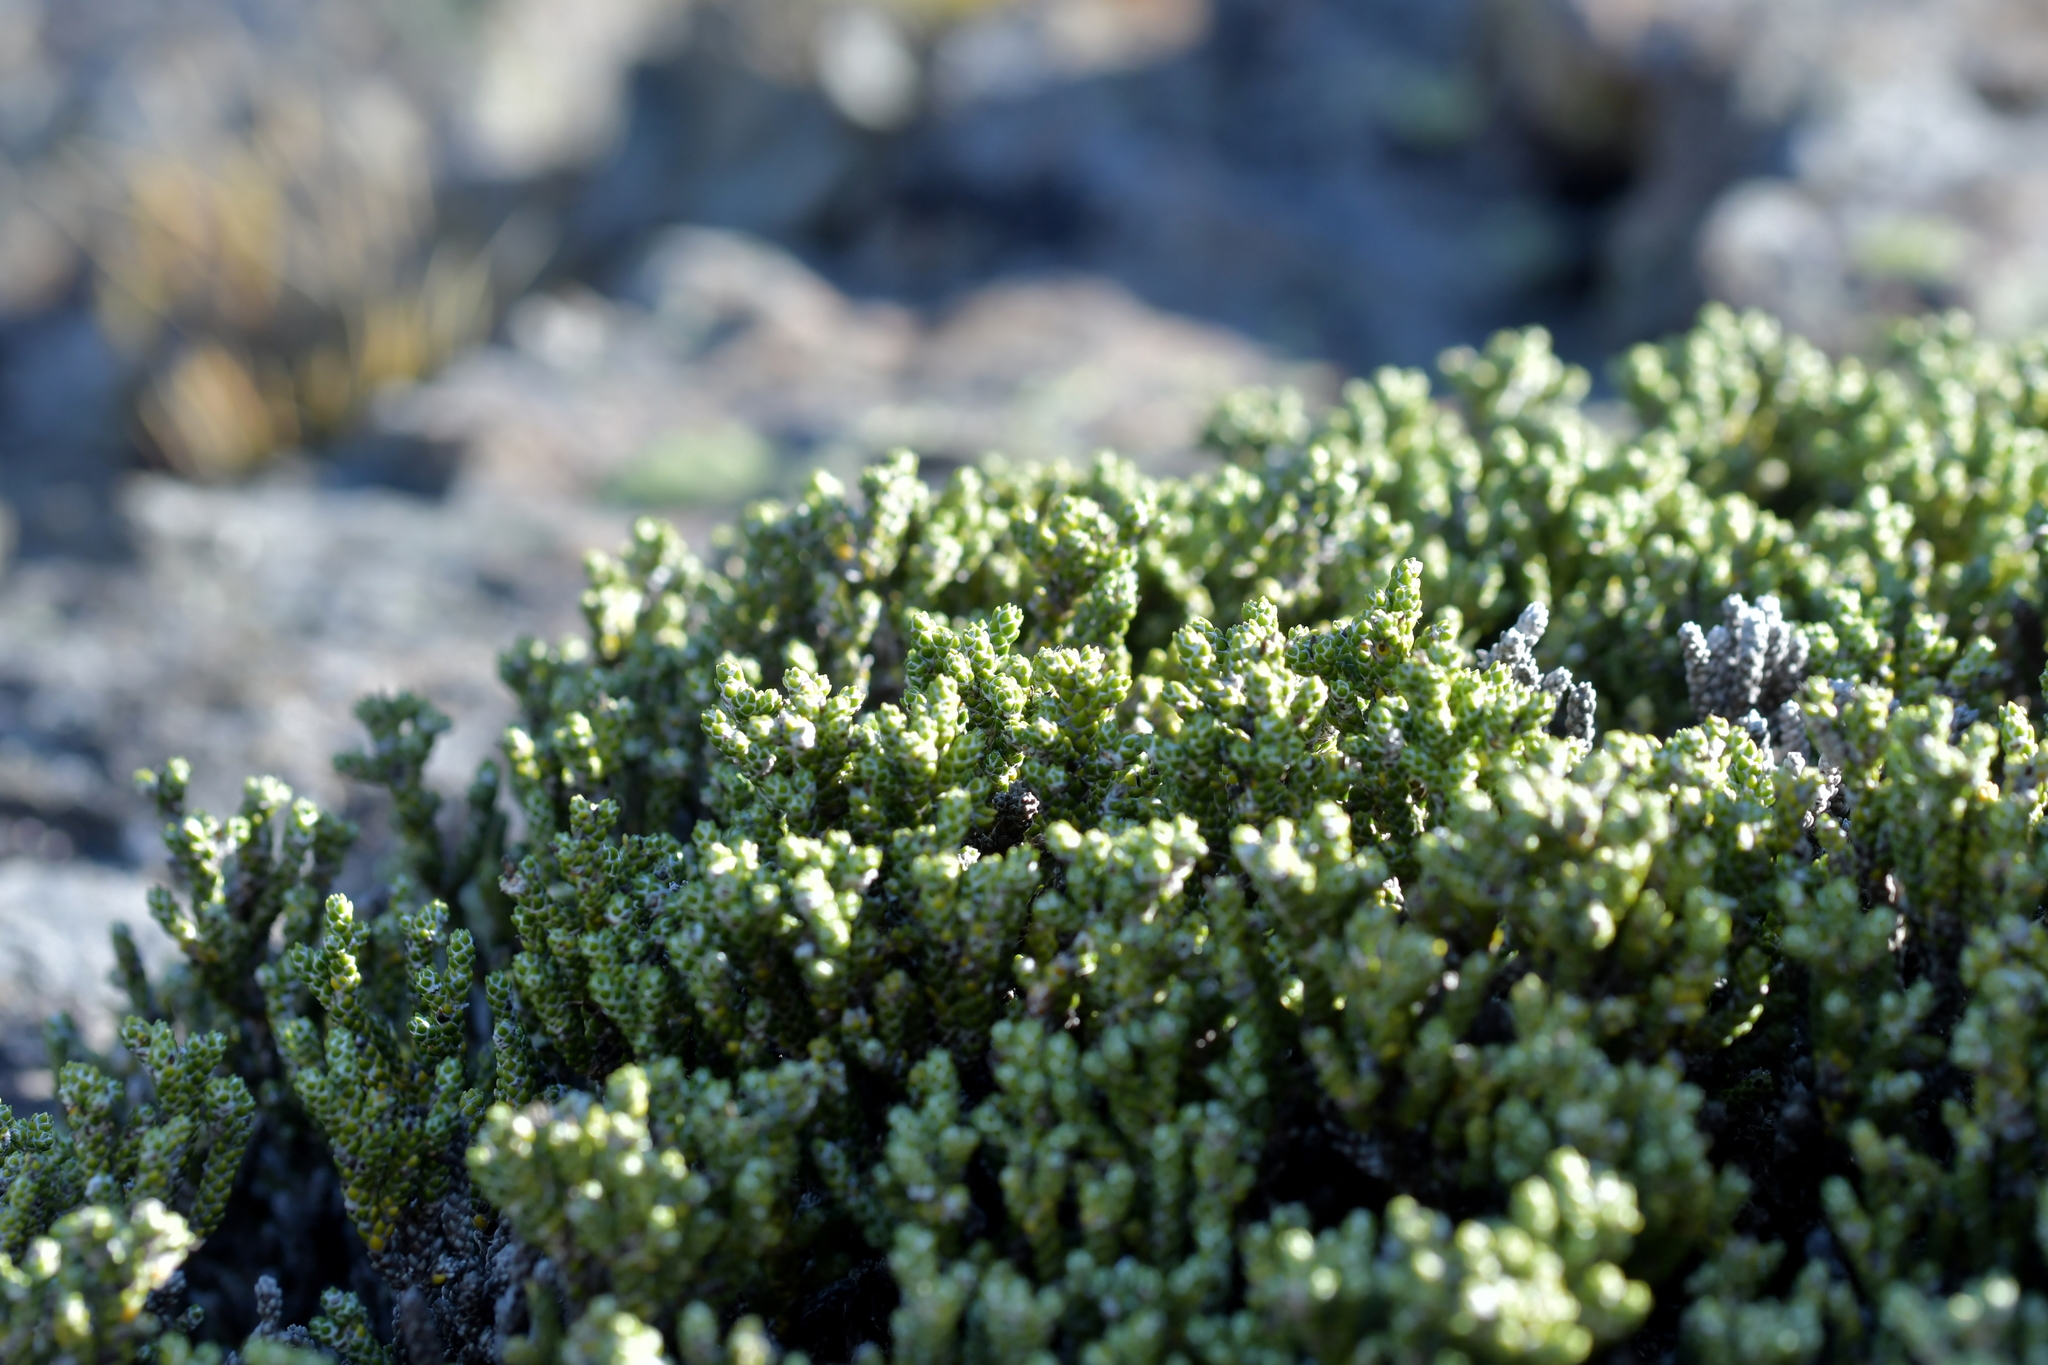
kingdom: Plantae
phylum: Tracheophyta
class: Magnoliopsida
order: Asterales
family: Asteraceae
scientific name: Asteraceae
